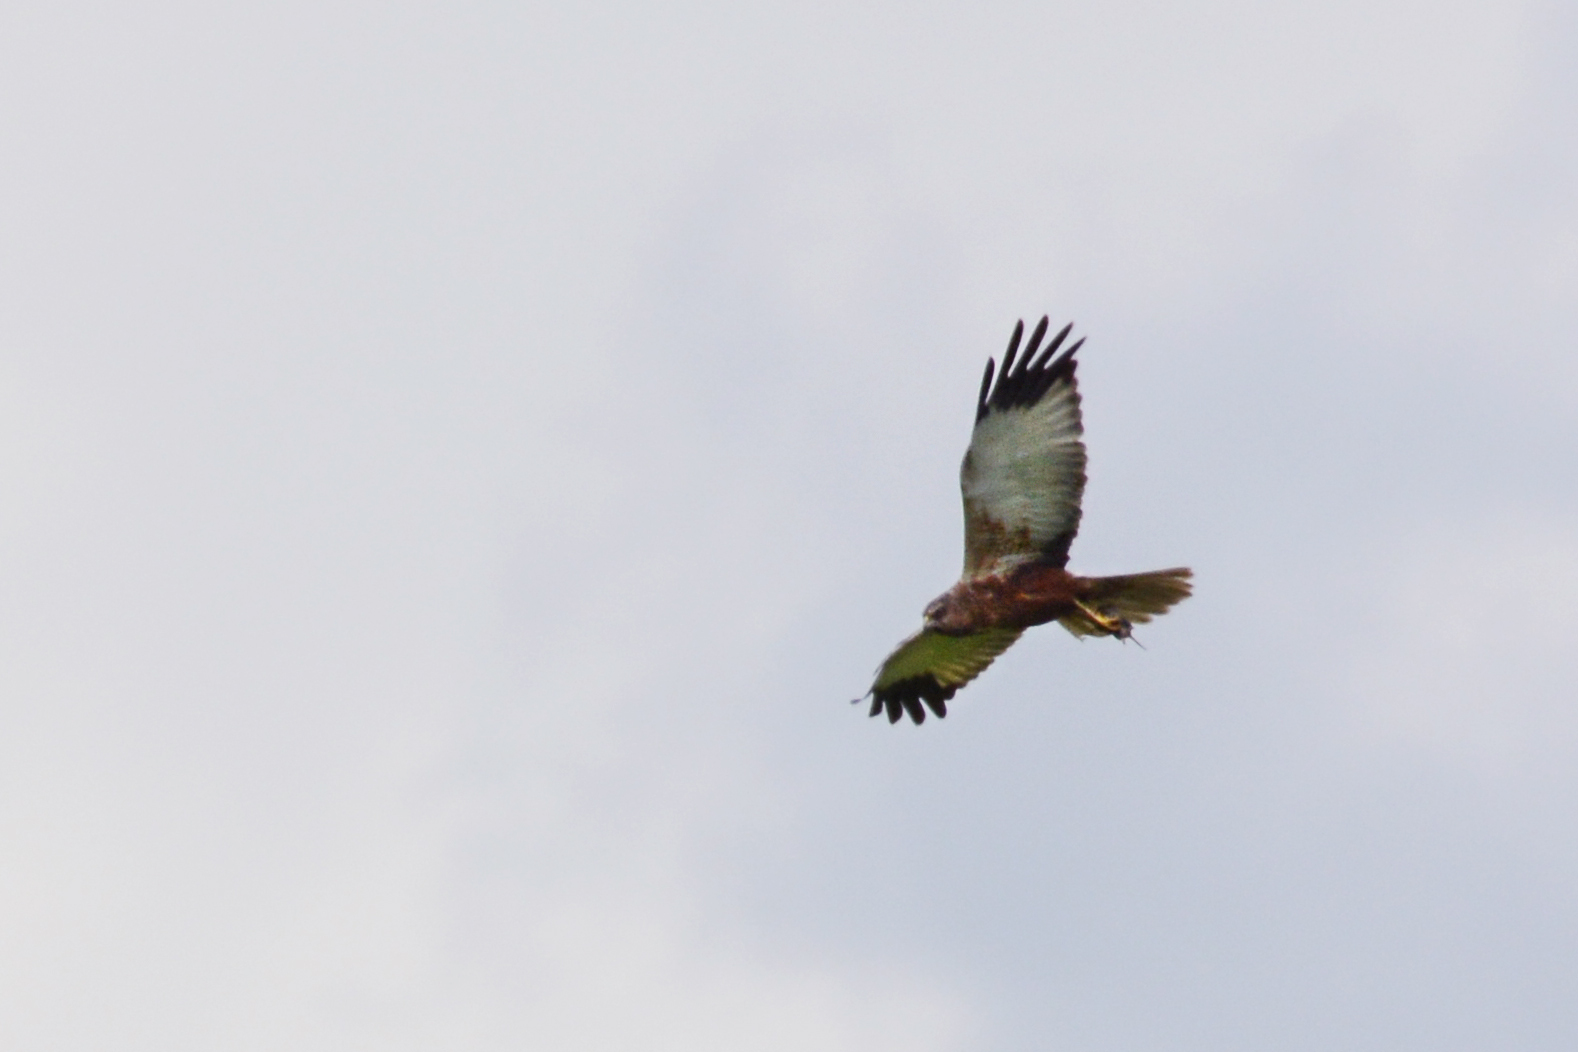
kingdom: Animalia
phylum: Chordata
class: Aves
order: Accipitriformes
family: Accipitridae
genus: Circus
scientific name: Circus aeruginosus
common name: Western marsh harrier
